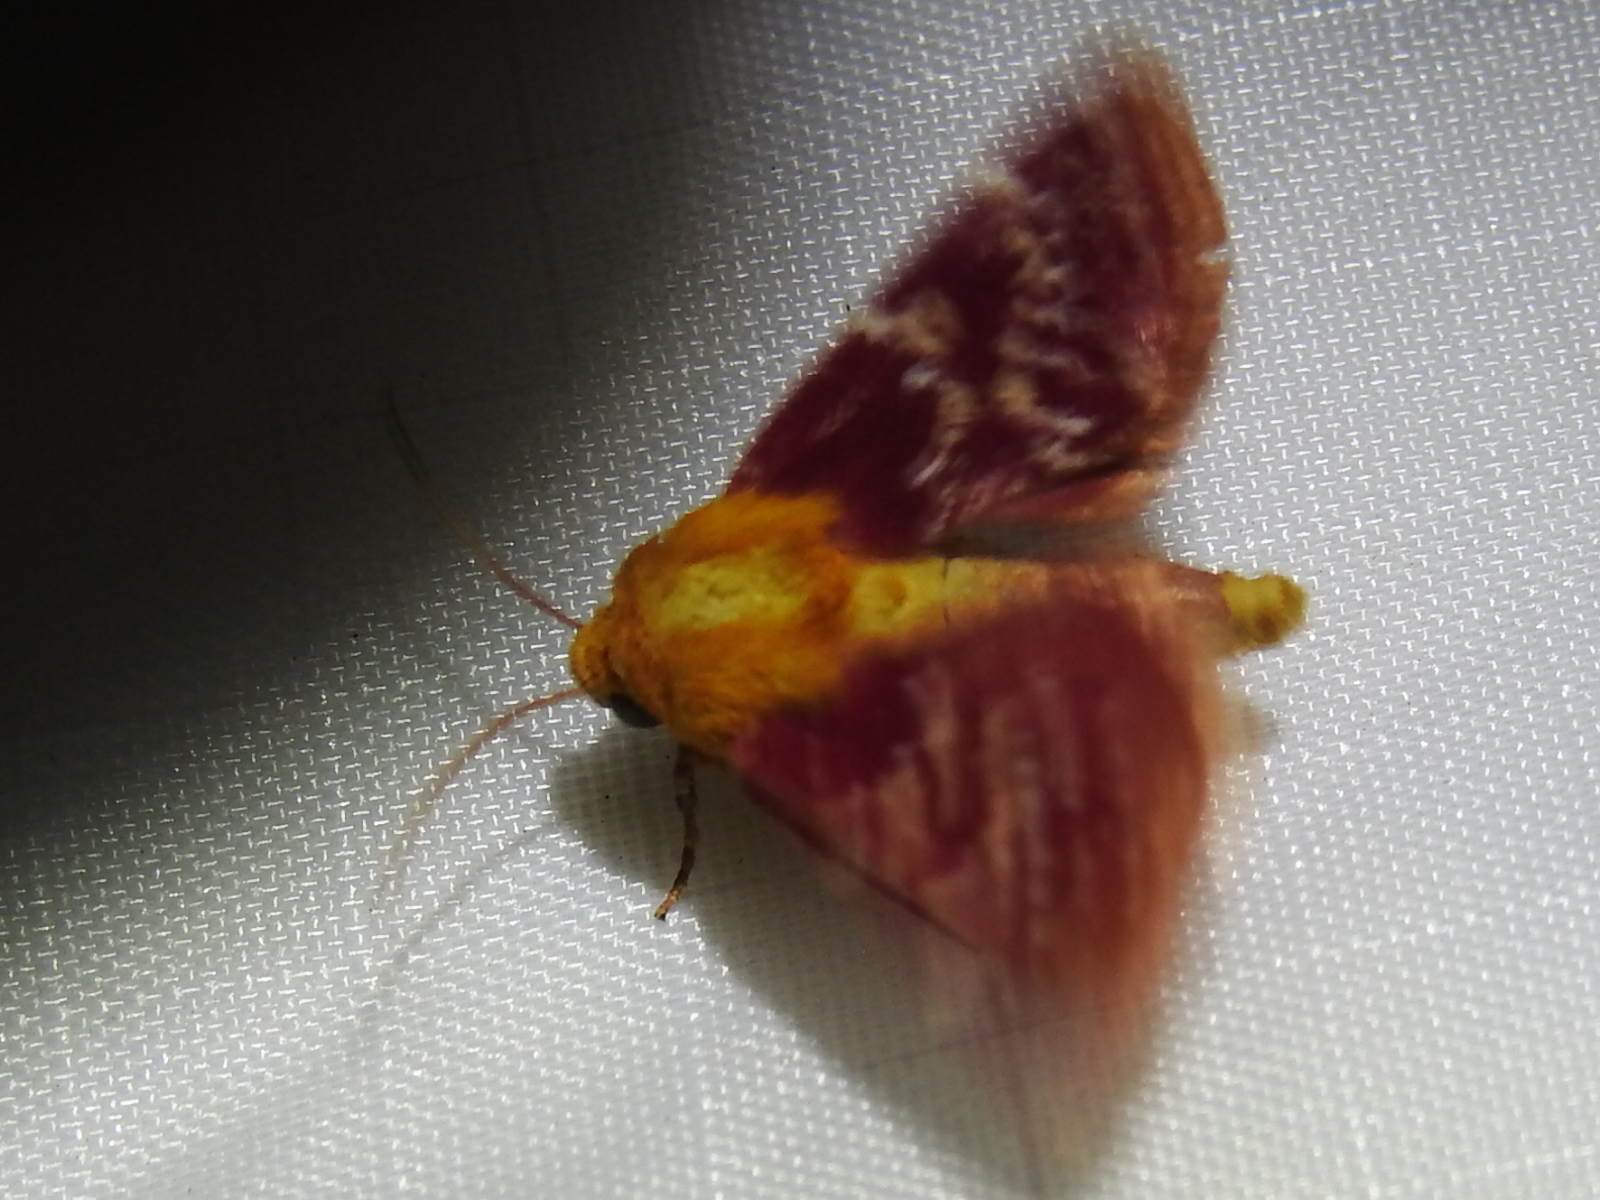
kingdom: Animalia
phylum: Arthropoda
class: Insecta
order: Lepidoptera
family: Noctuidae
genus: Schinia
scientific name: Schinia volupia
